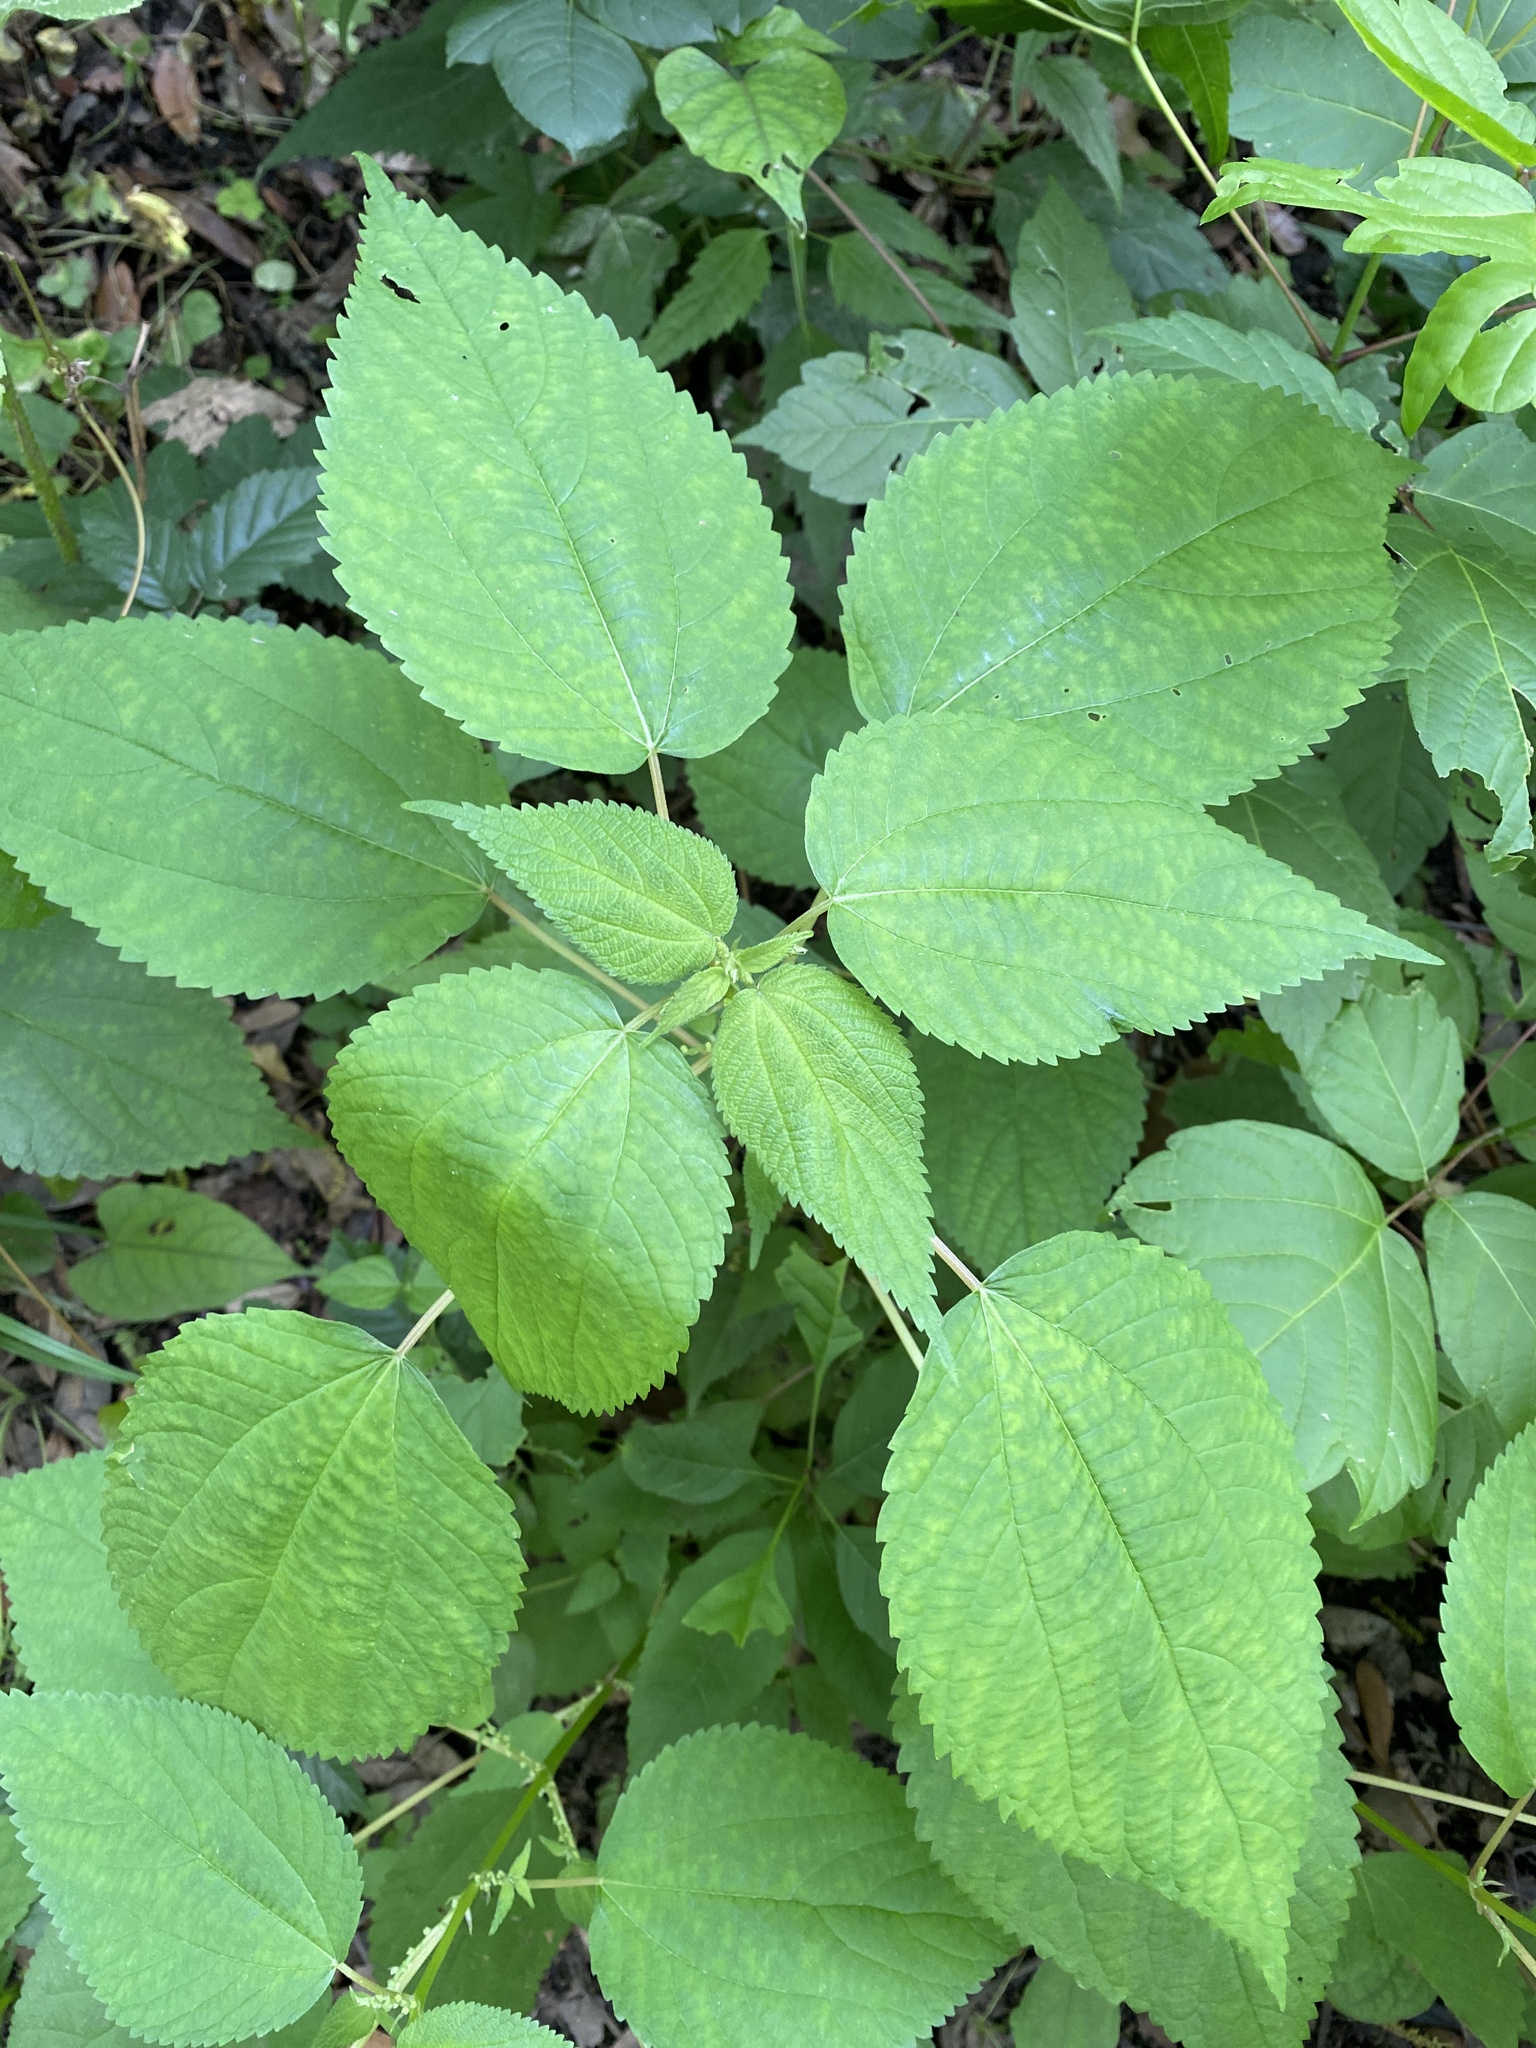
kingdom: Plantae
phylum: Tracheophyta
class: Magnoliopsida
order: Rosales
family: Urticaceae
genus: Boehmeria
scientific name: Boehmeria cylindrica
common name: Bog-hemp
